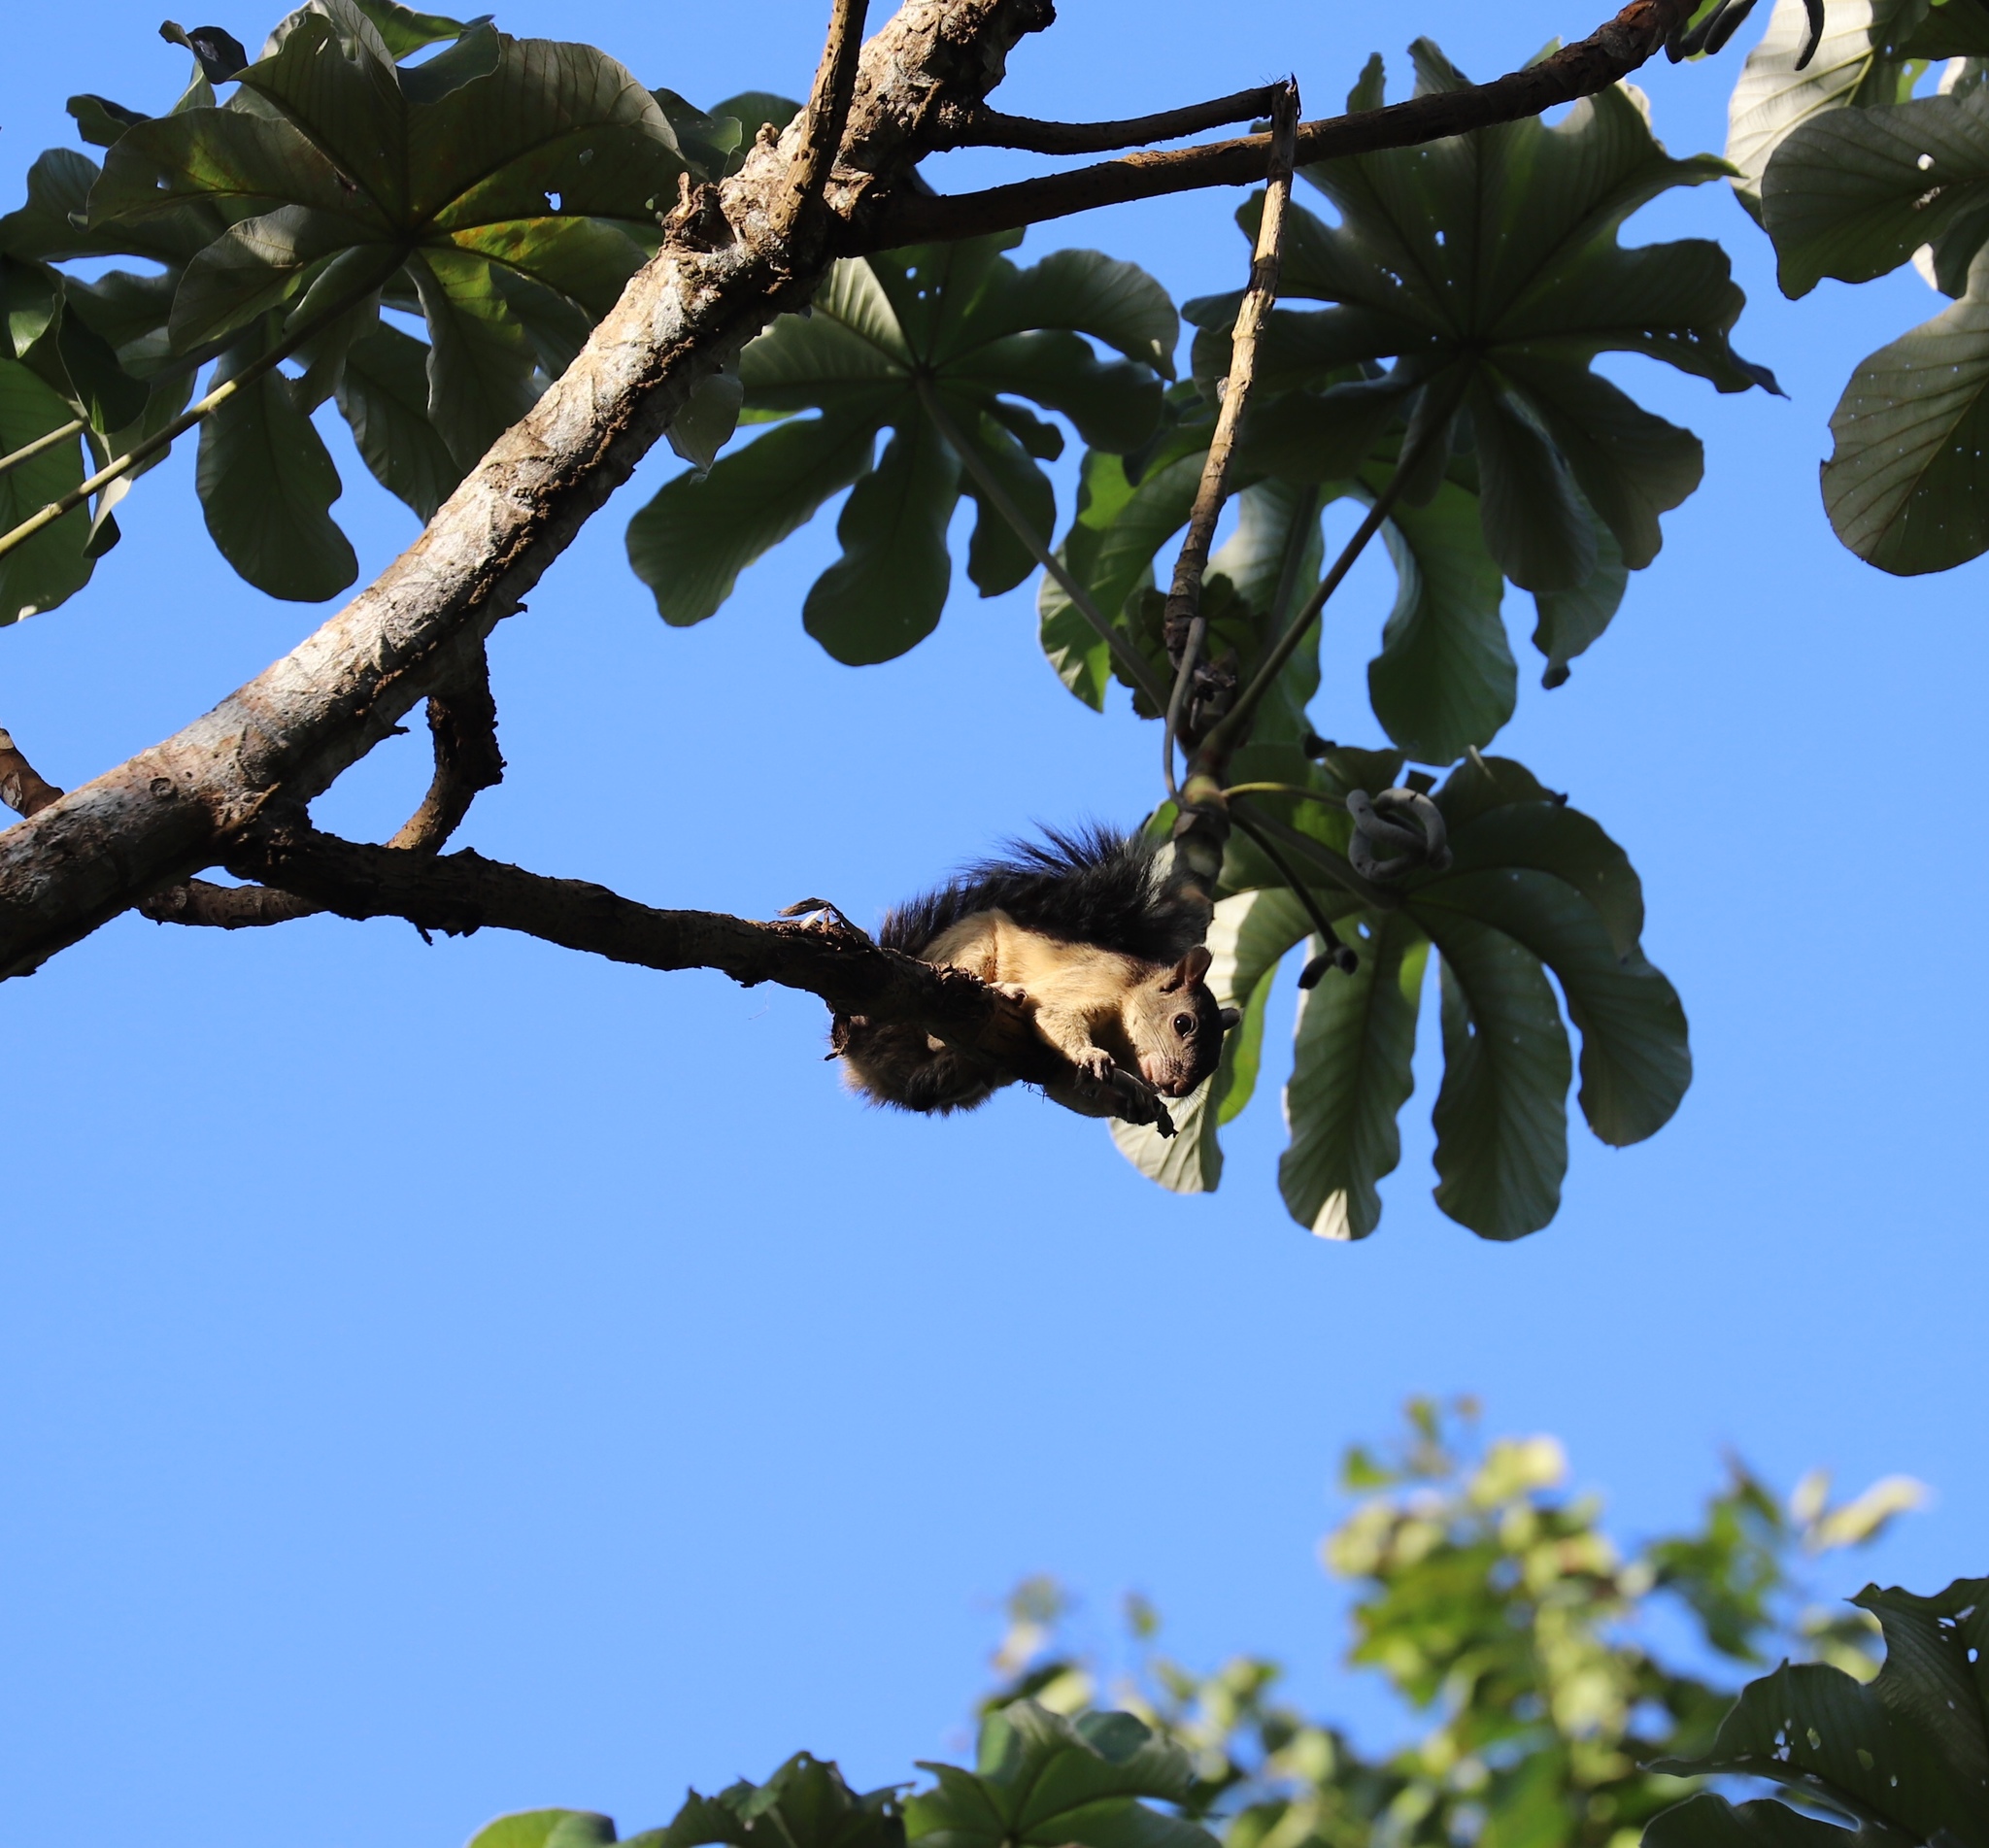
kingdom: Animalia
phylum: Chordata
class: Mammalia
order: Rodentia
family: Sciuridae
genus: Sciurus
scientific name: Sciurus variegatoides
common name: Variegated squirrel
